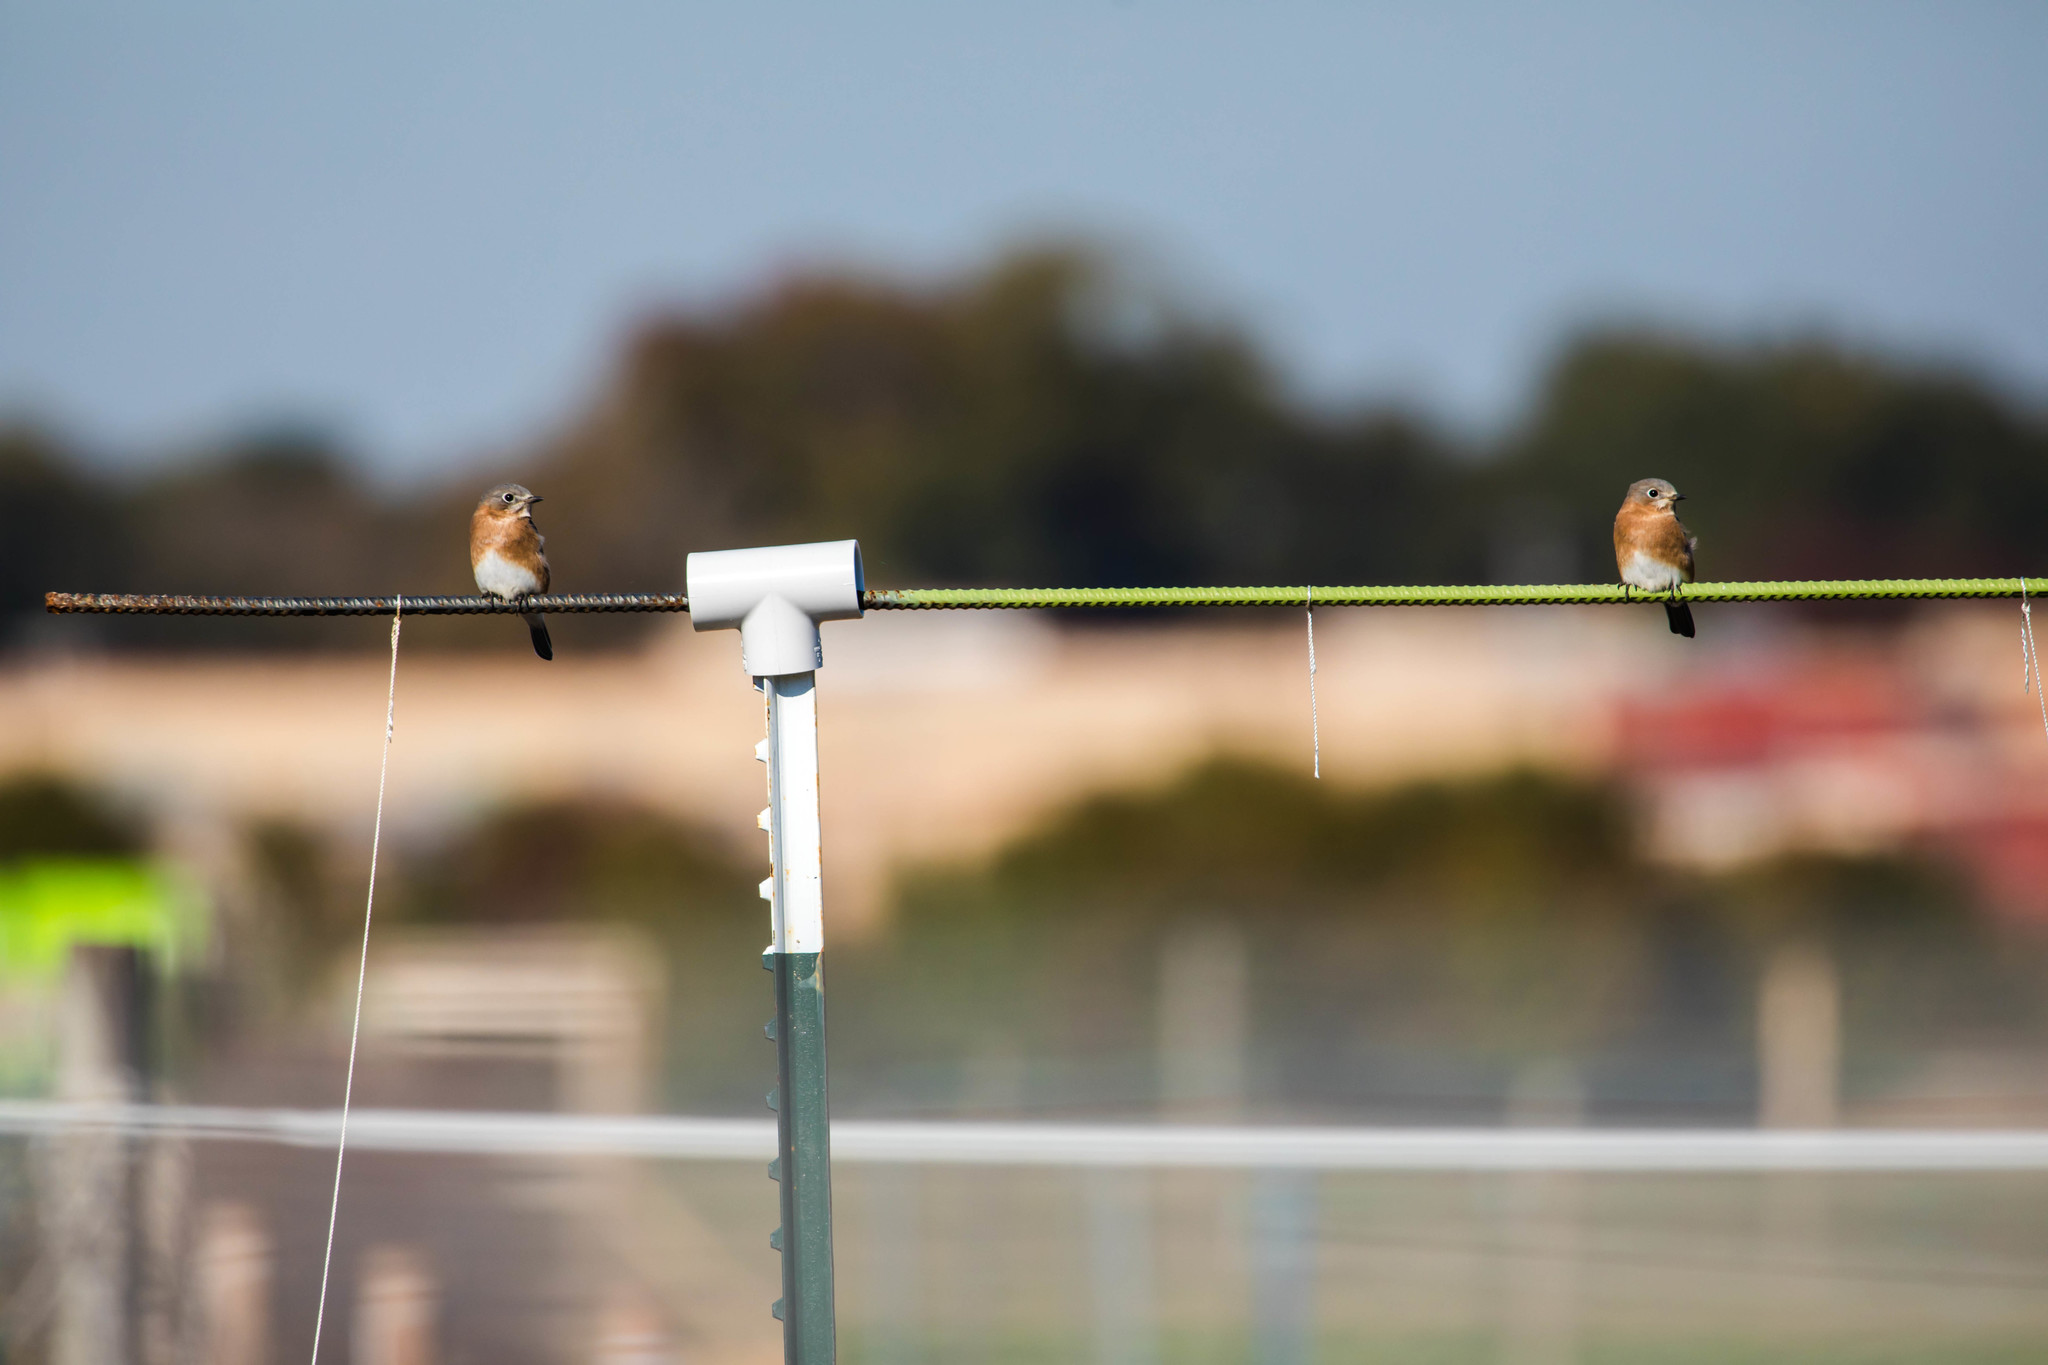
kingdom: Animalia
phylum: Chordata
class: Aves
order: Passeriformes
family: Turdidae
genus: Sialia
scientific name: Sialia sialis
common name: Eastern bluebird
